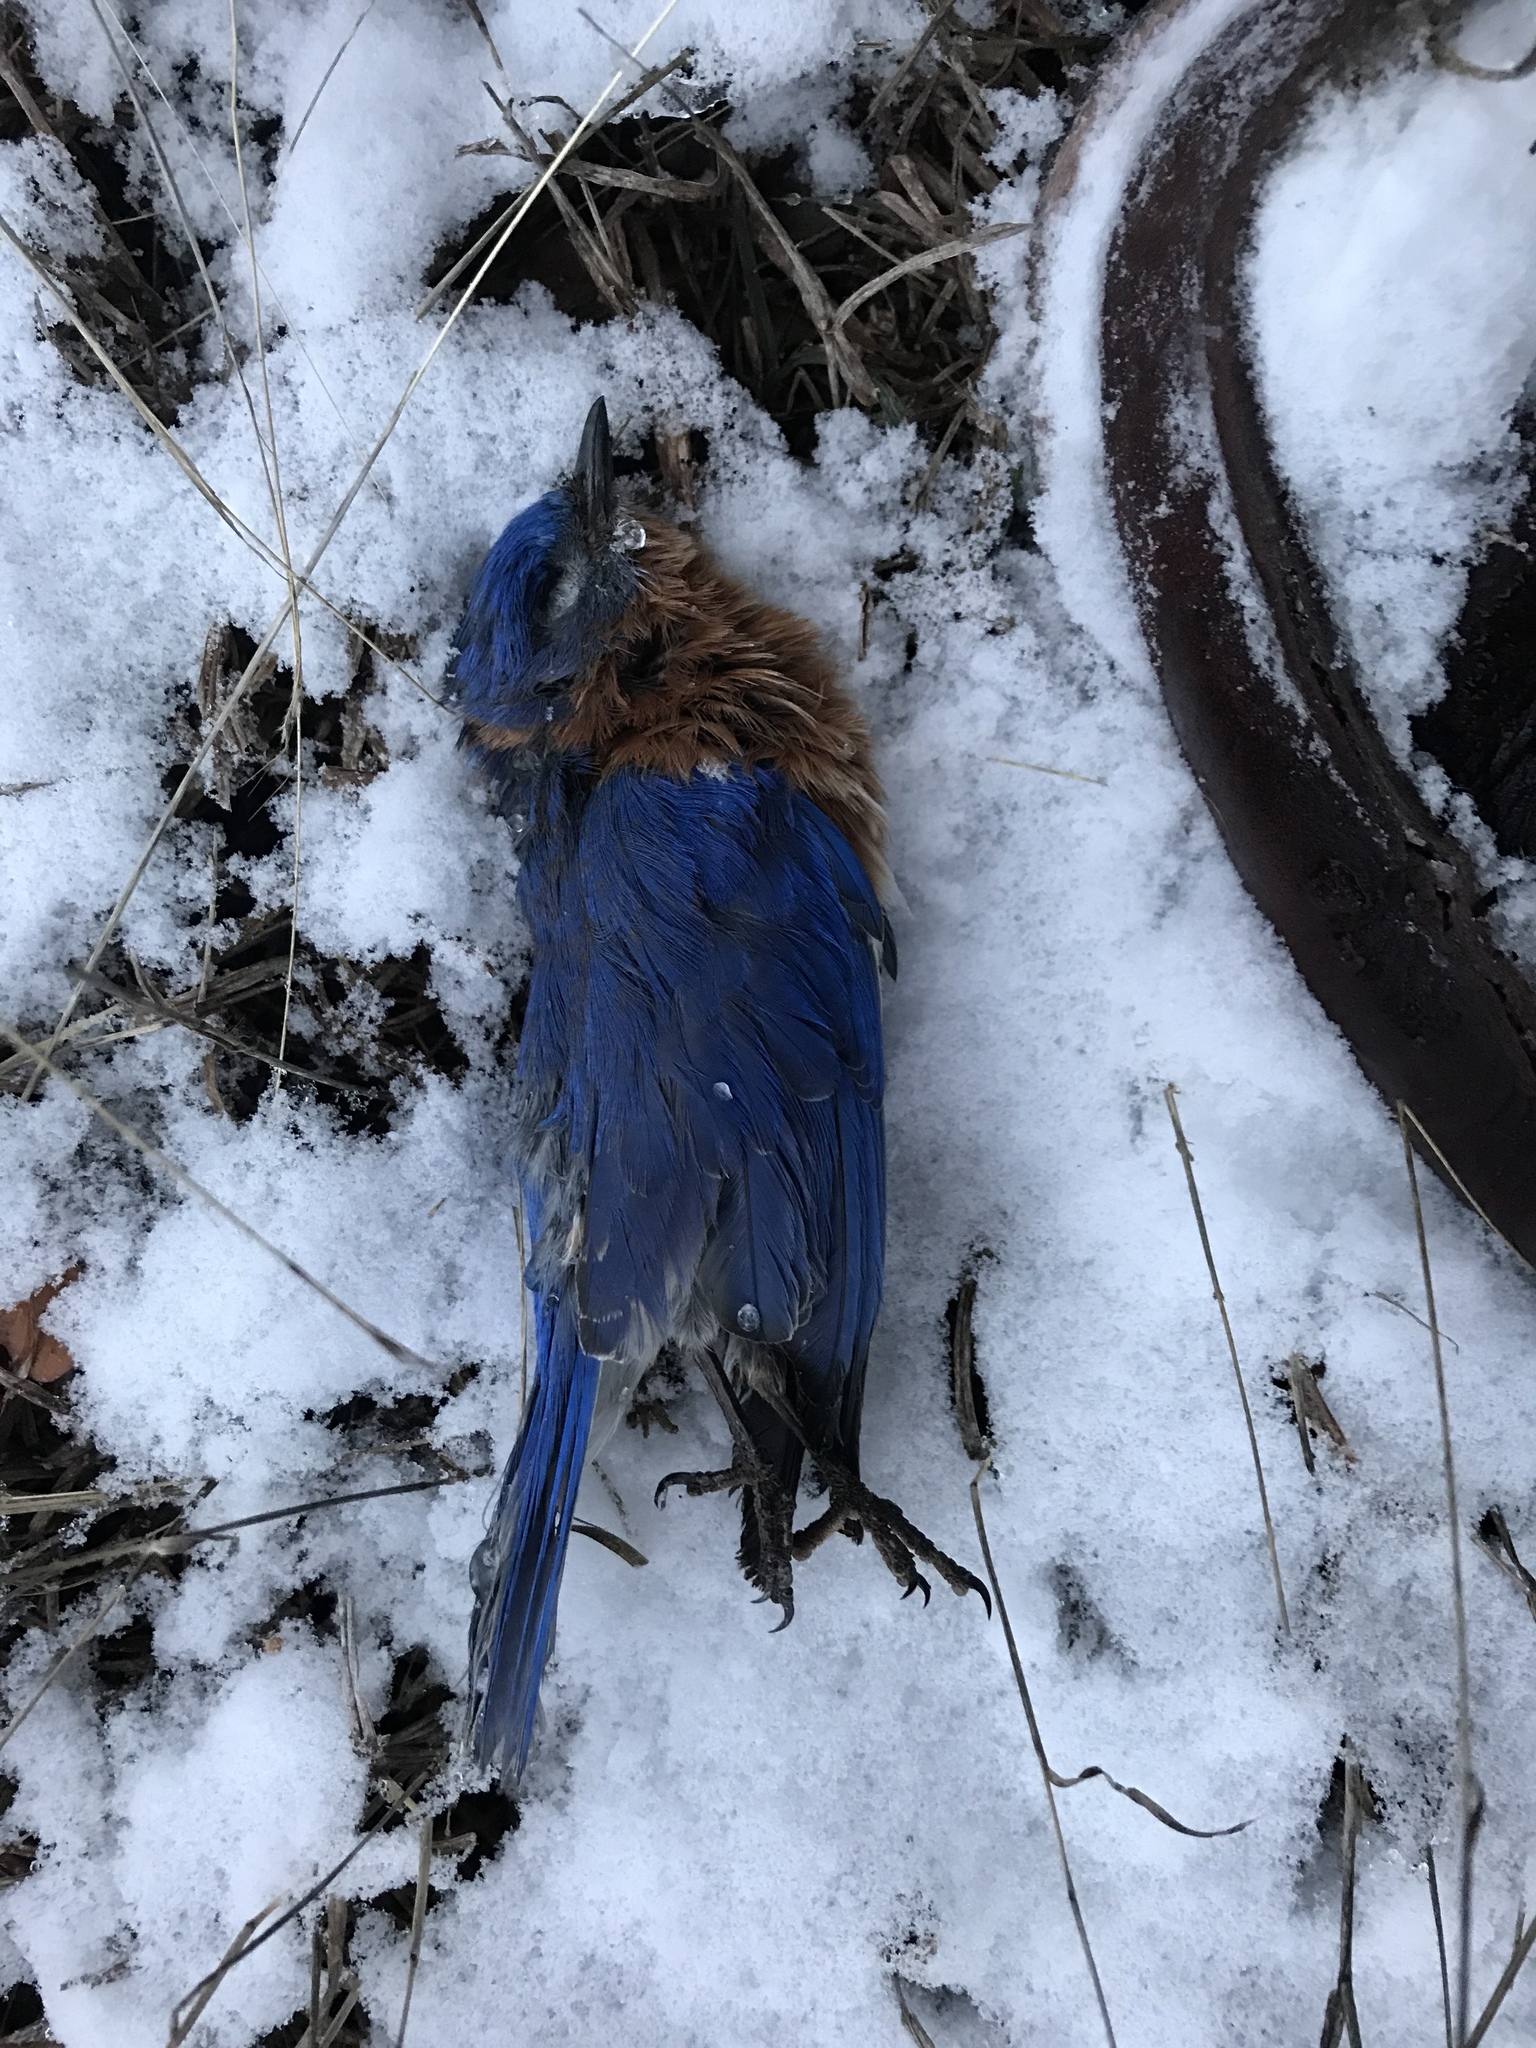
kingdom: Animalia
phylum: Chordata
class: Aves
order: Passeriformes
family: Turdidae
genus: Sialia
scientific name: Sialia sialis
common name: Eastern bluebird
